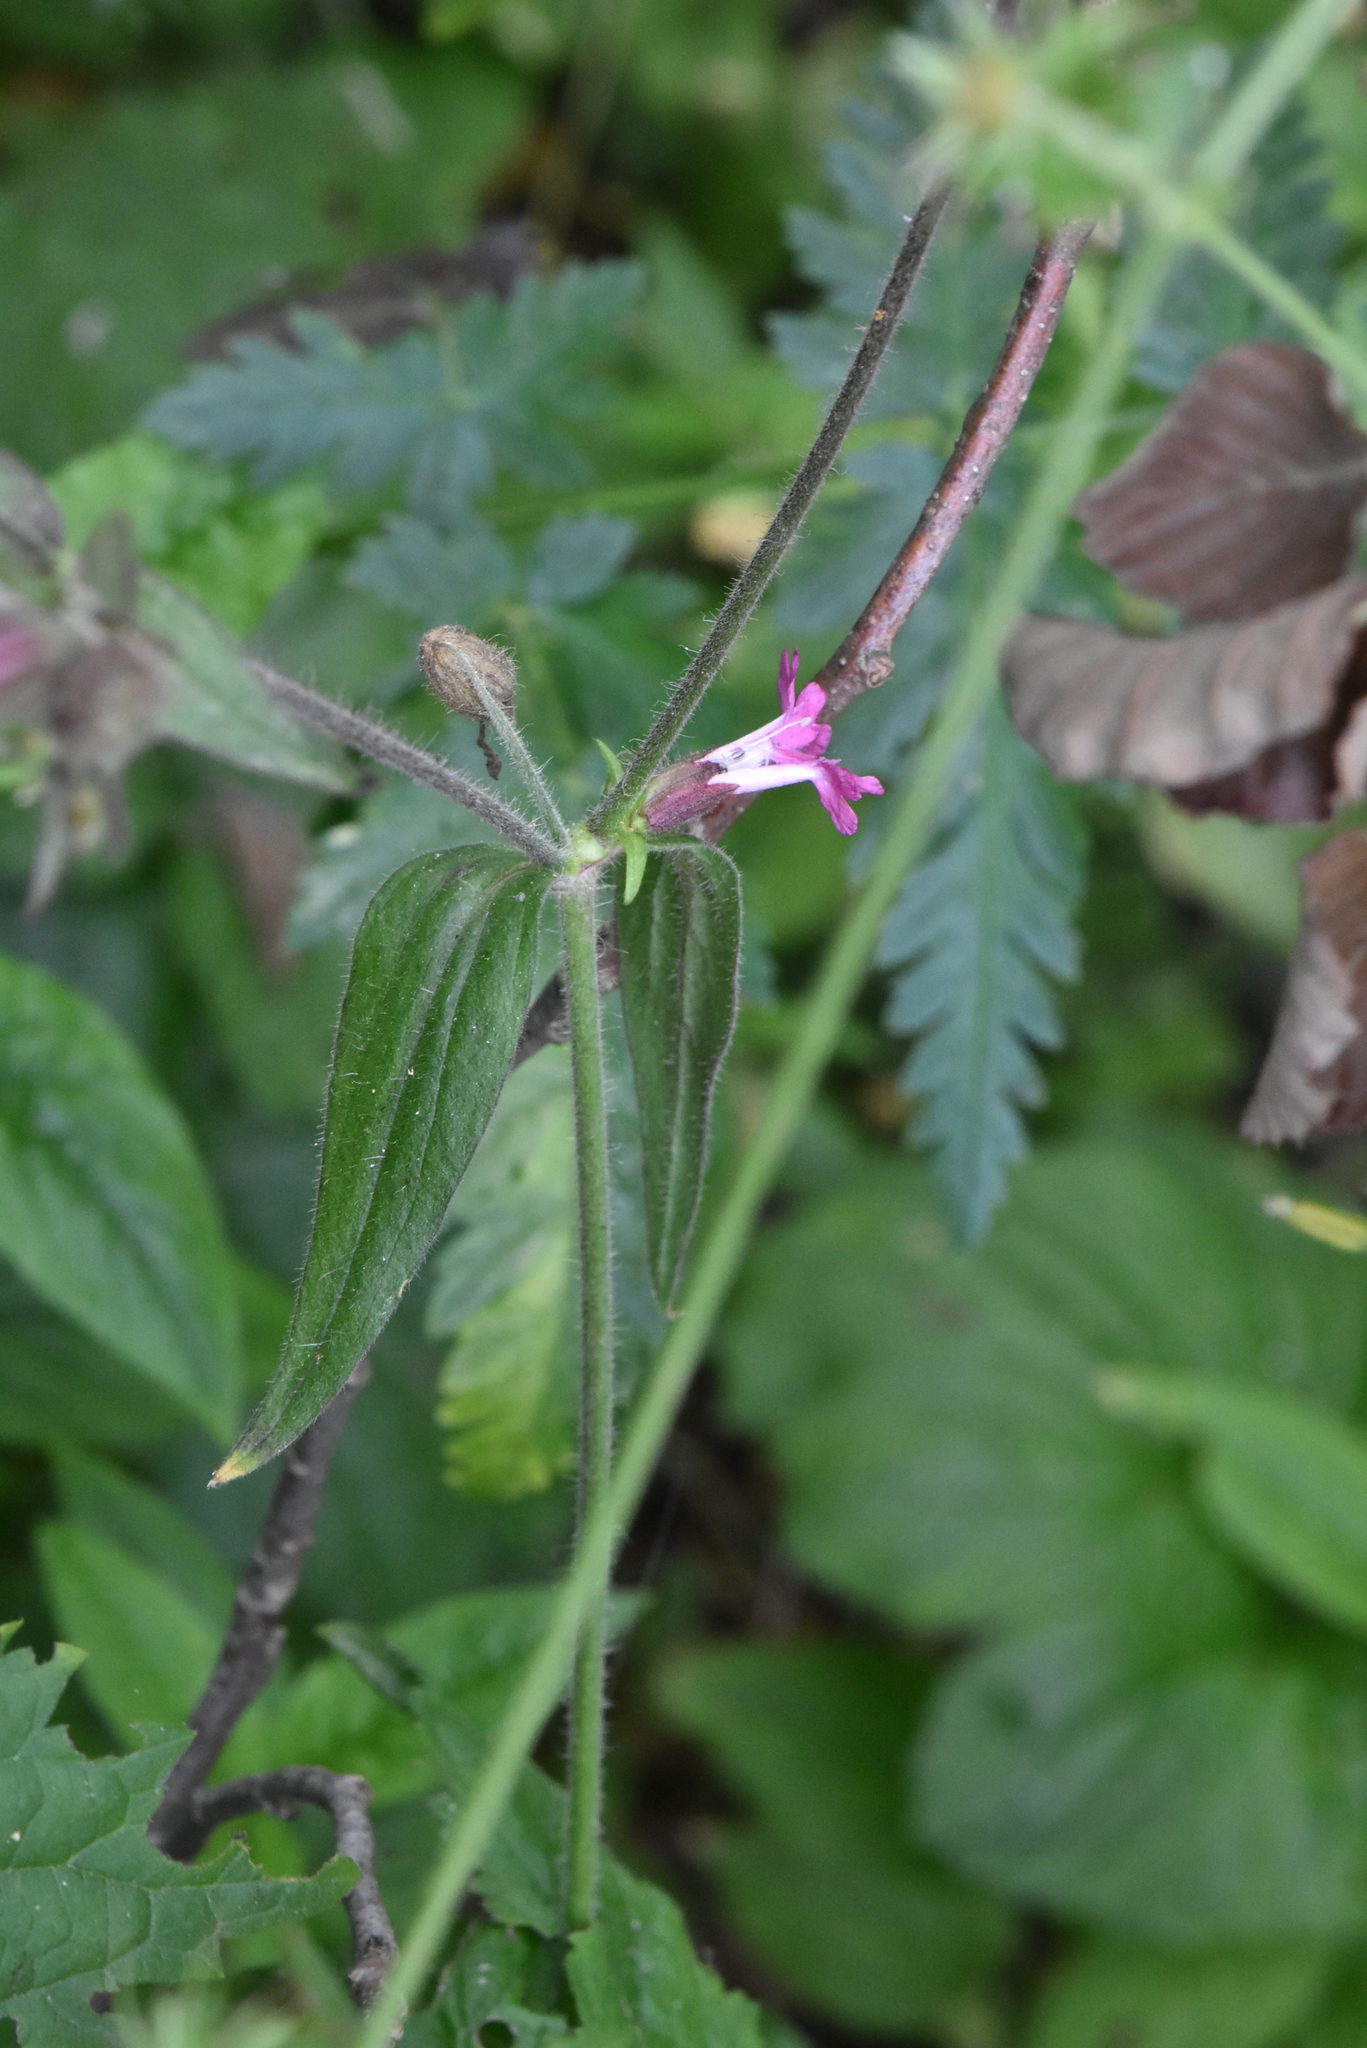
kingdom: Plantae
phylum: Tracheophyta
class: Magnoliopsida
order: Caryophyllales
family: Caryophyllaceae
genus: Silene
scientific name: Silene dioica
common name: Red campion
